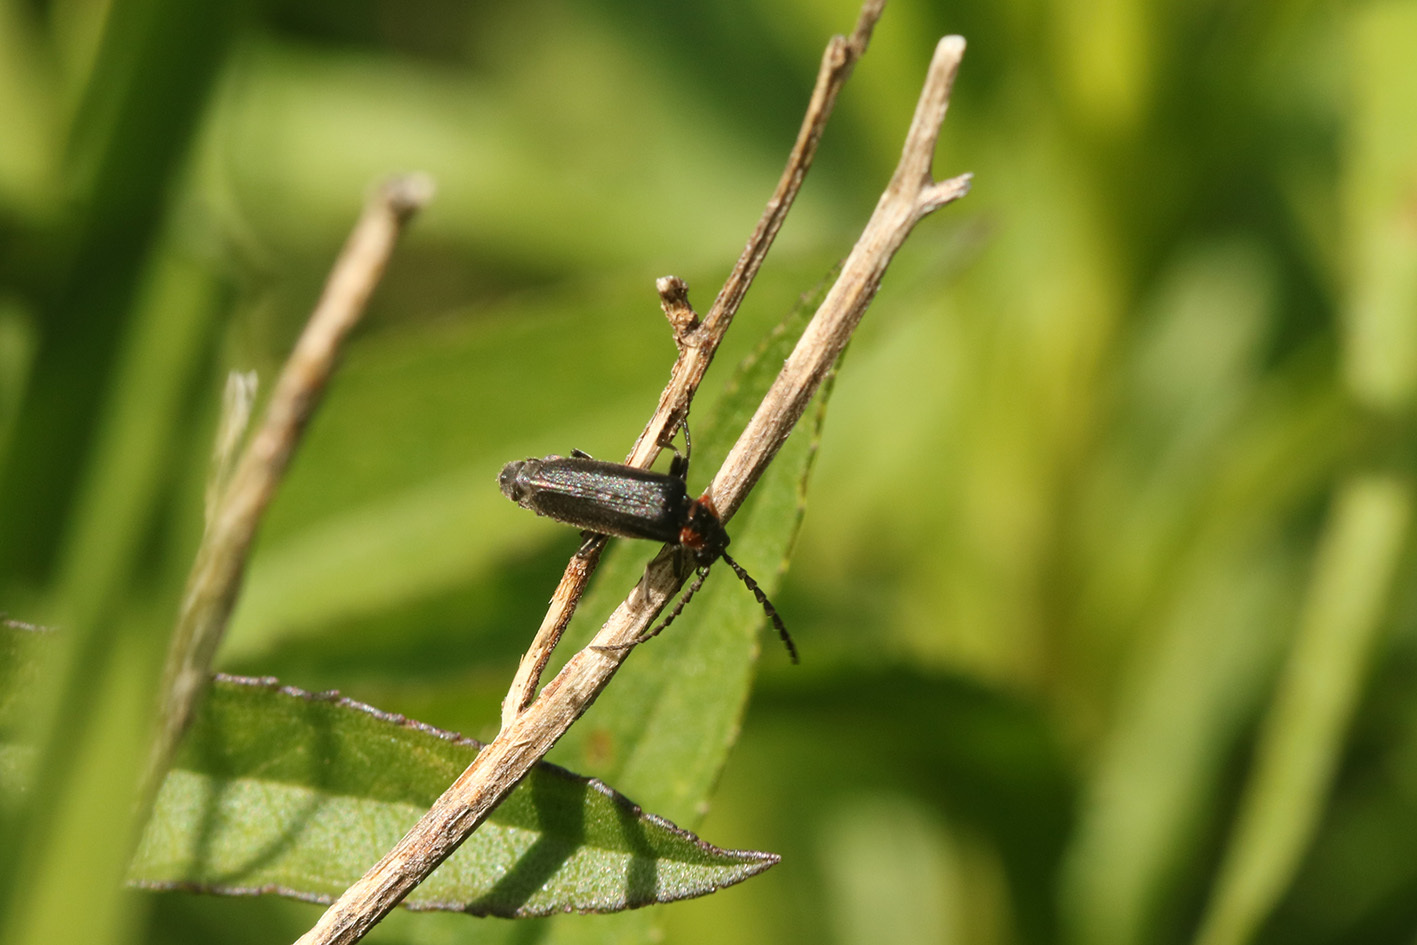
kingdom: Animalia
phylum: Arthropoda
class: Insecta
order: Coleoptera
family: Cantharidae
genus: Polemius
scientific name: Polemius
